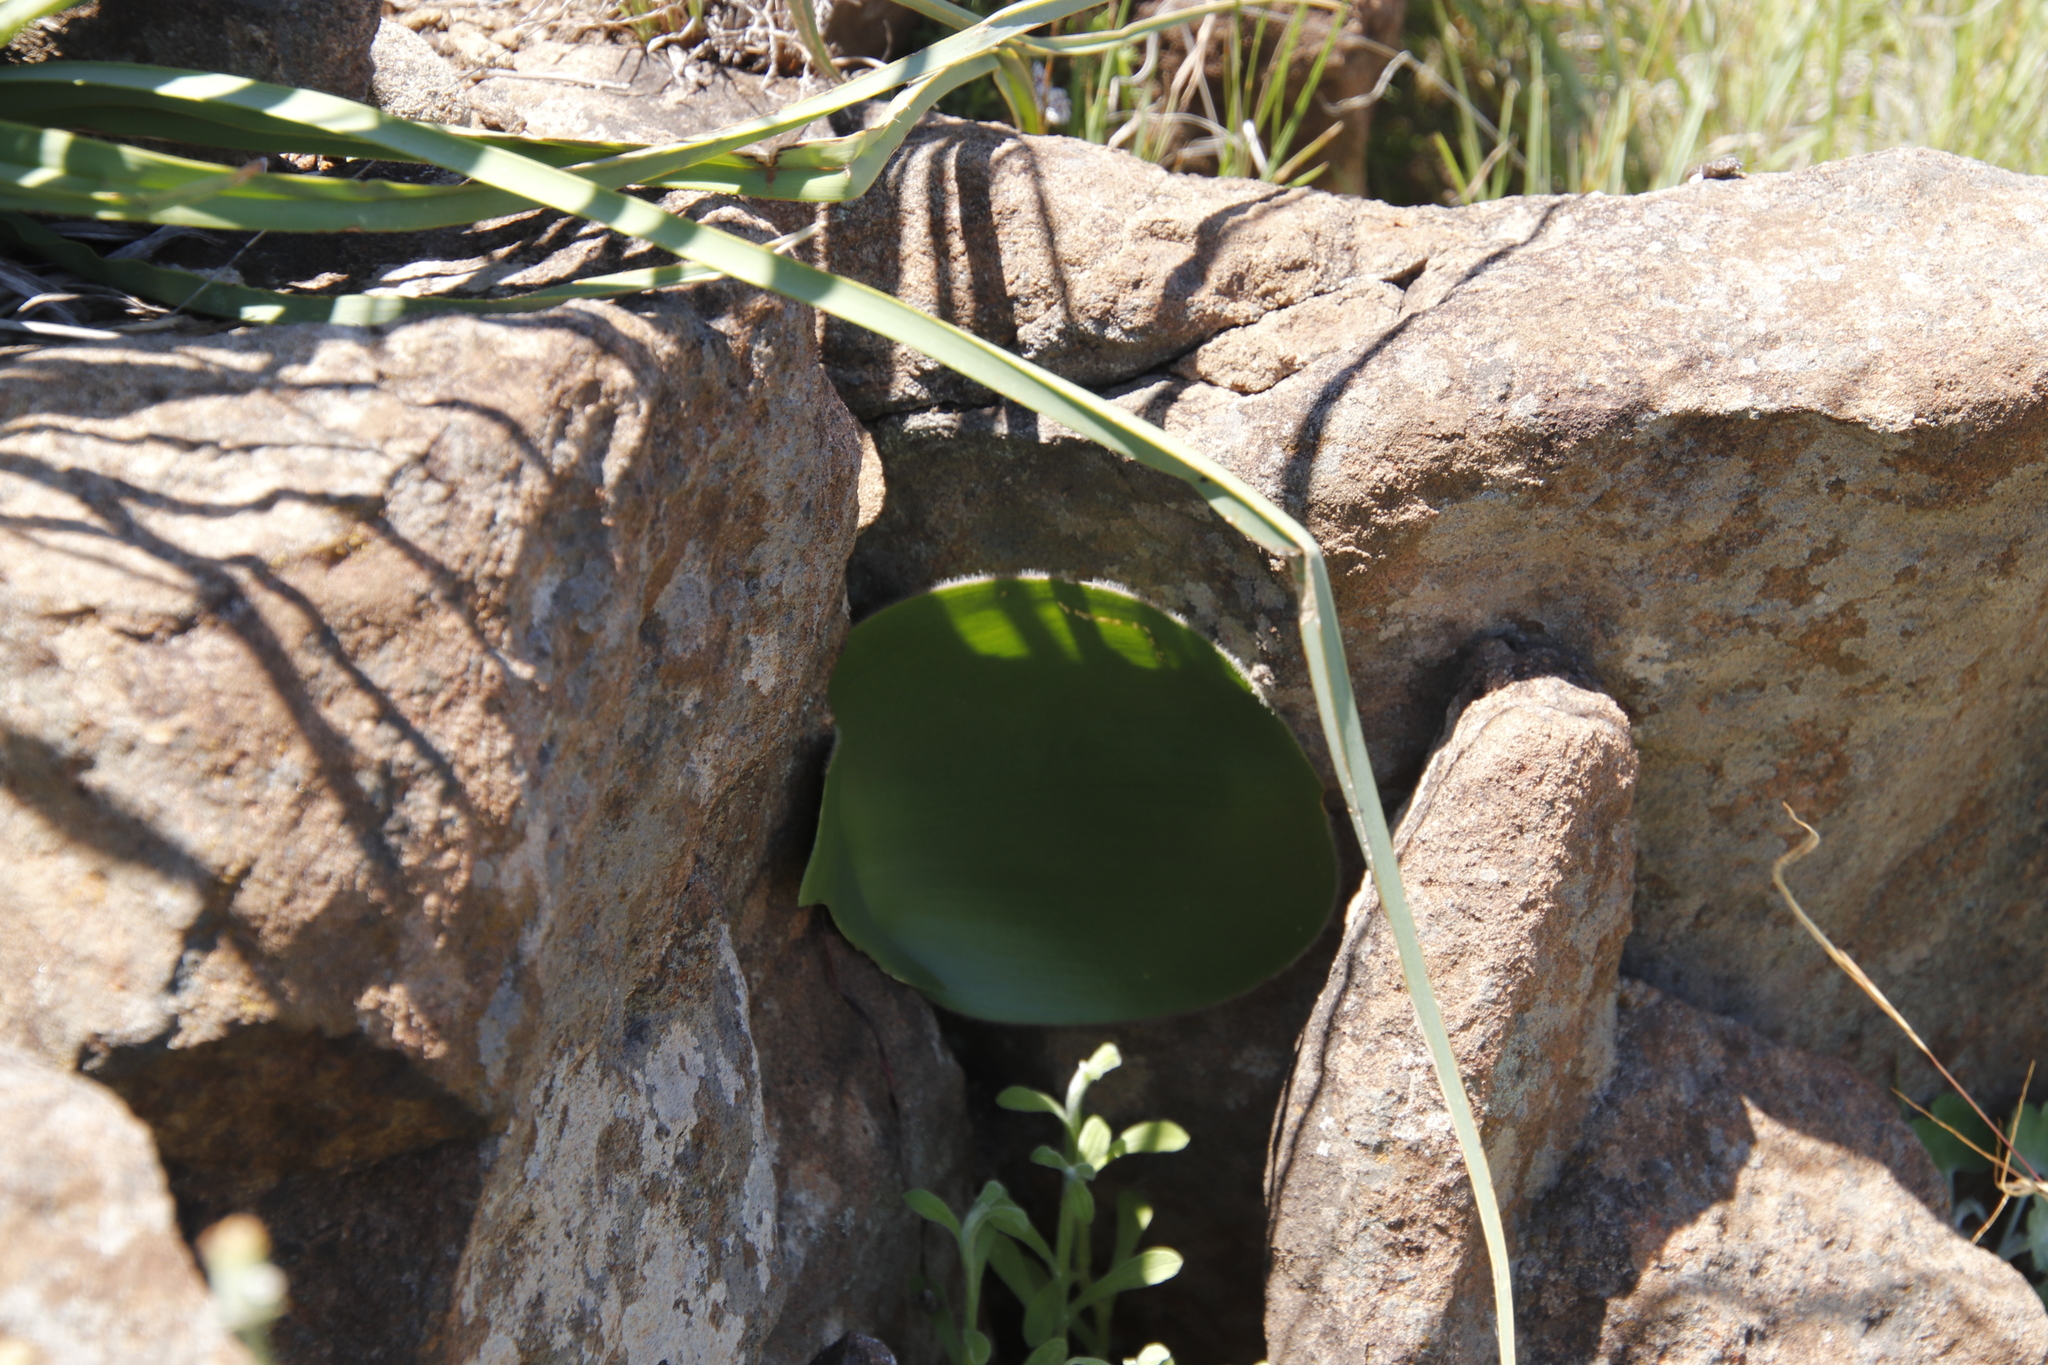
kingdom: Plantae
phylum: Tracheophyta
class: Liliopsida
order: Asparagales
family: Amaryllidaceae
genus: Haemanthus
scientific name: Haemanthus humilis
